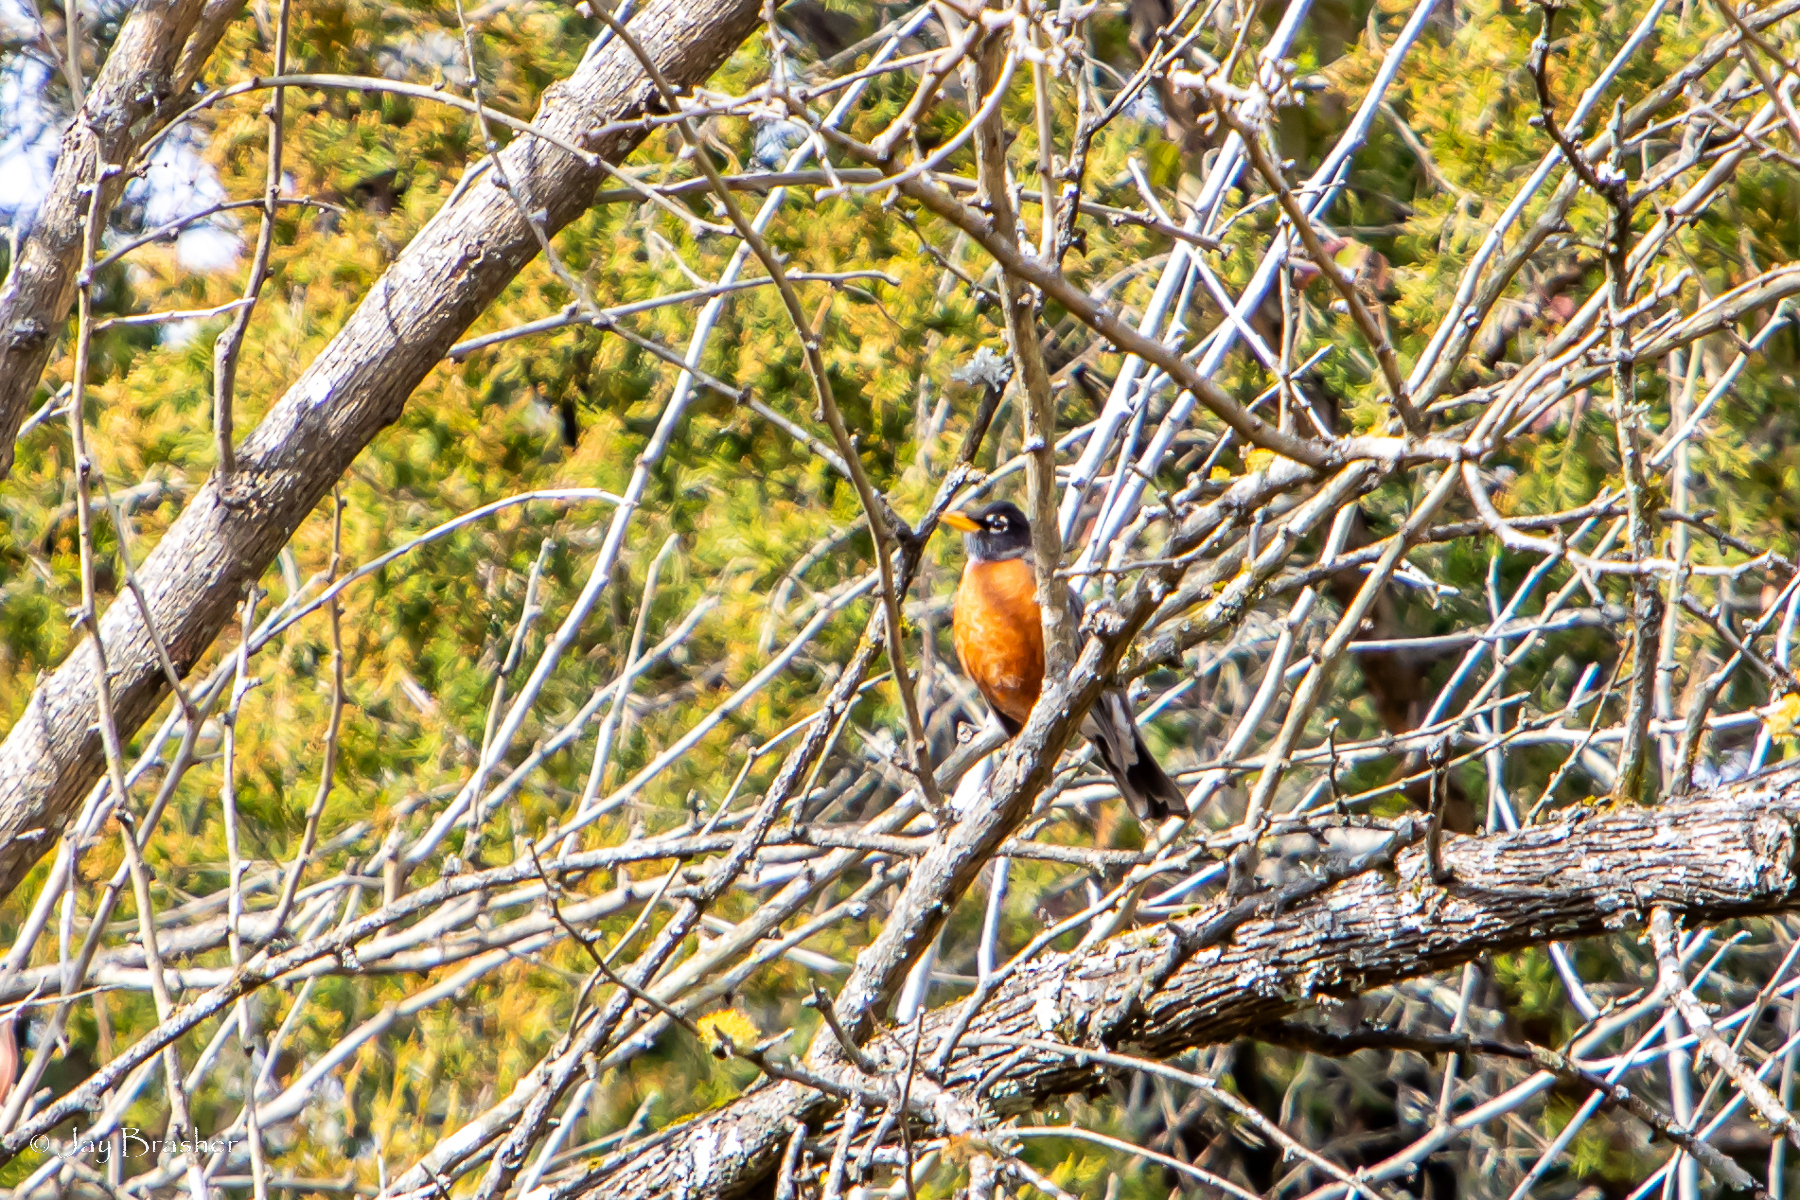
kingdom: Animalia
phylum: Chordata
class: Aves
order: Passeriformes
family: Turdidae
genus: Turdus
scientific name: Turdus migratorius
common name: American robin
